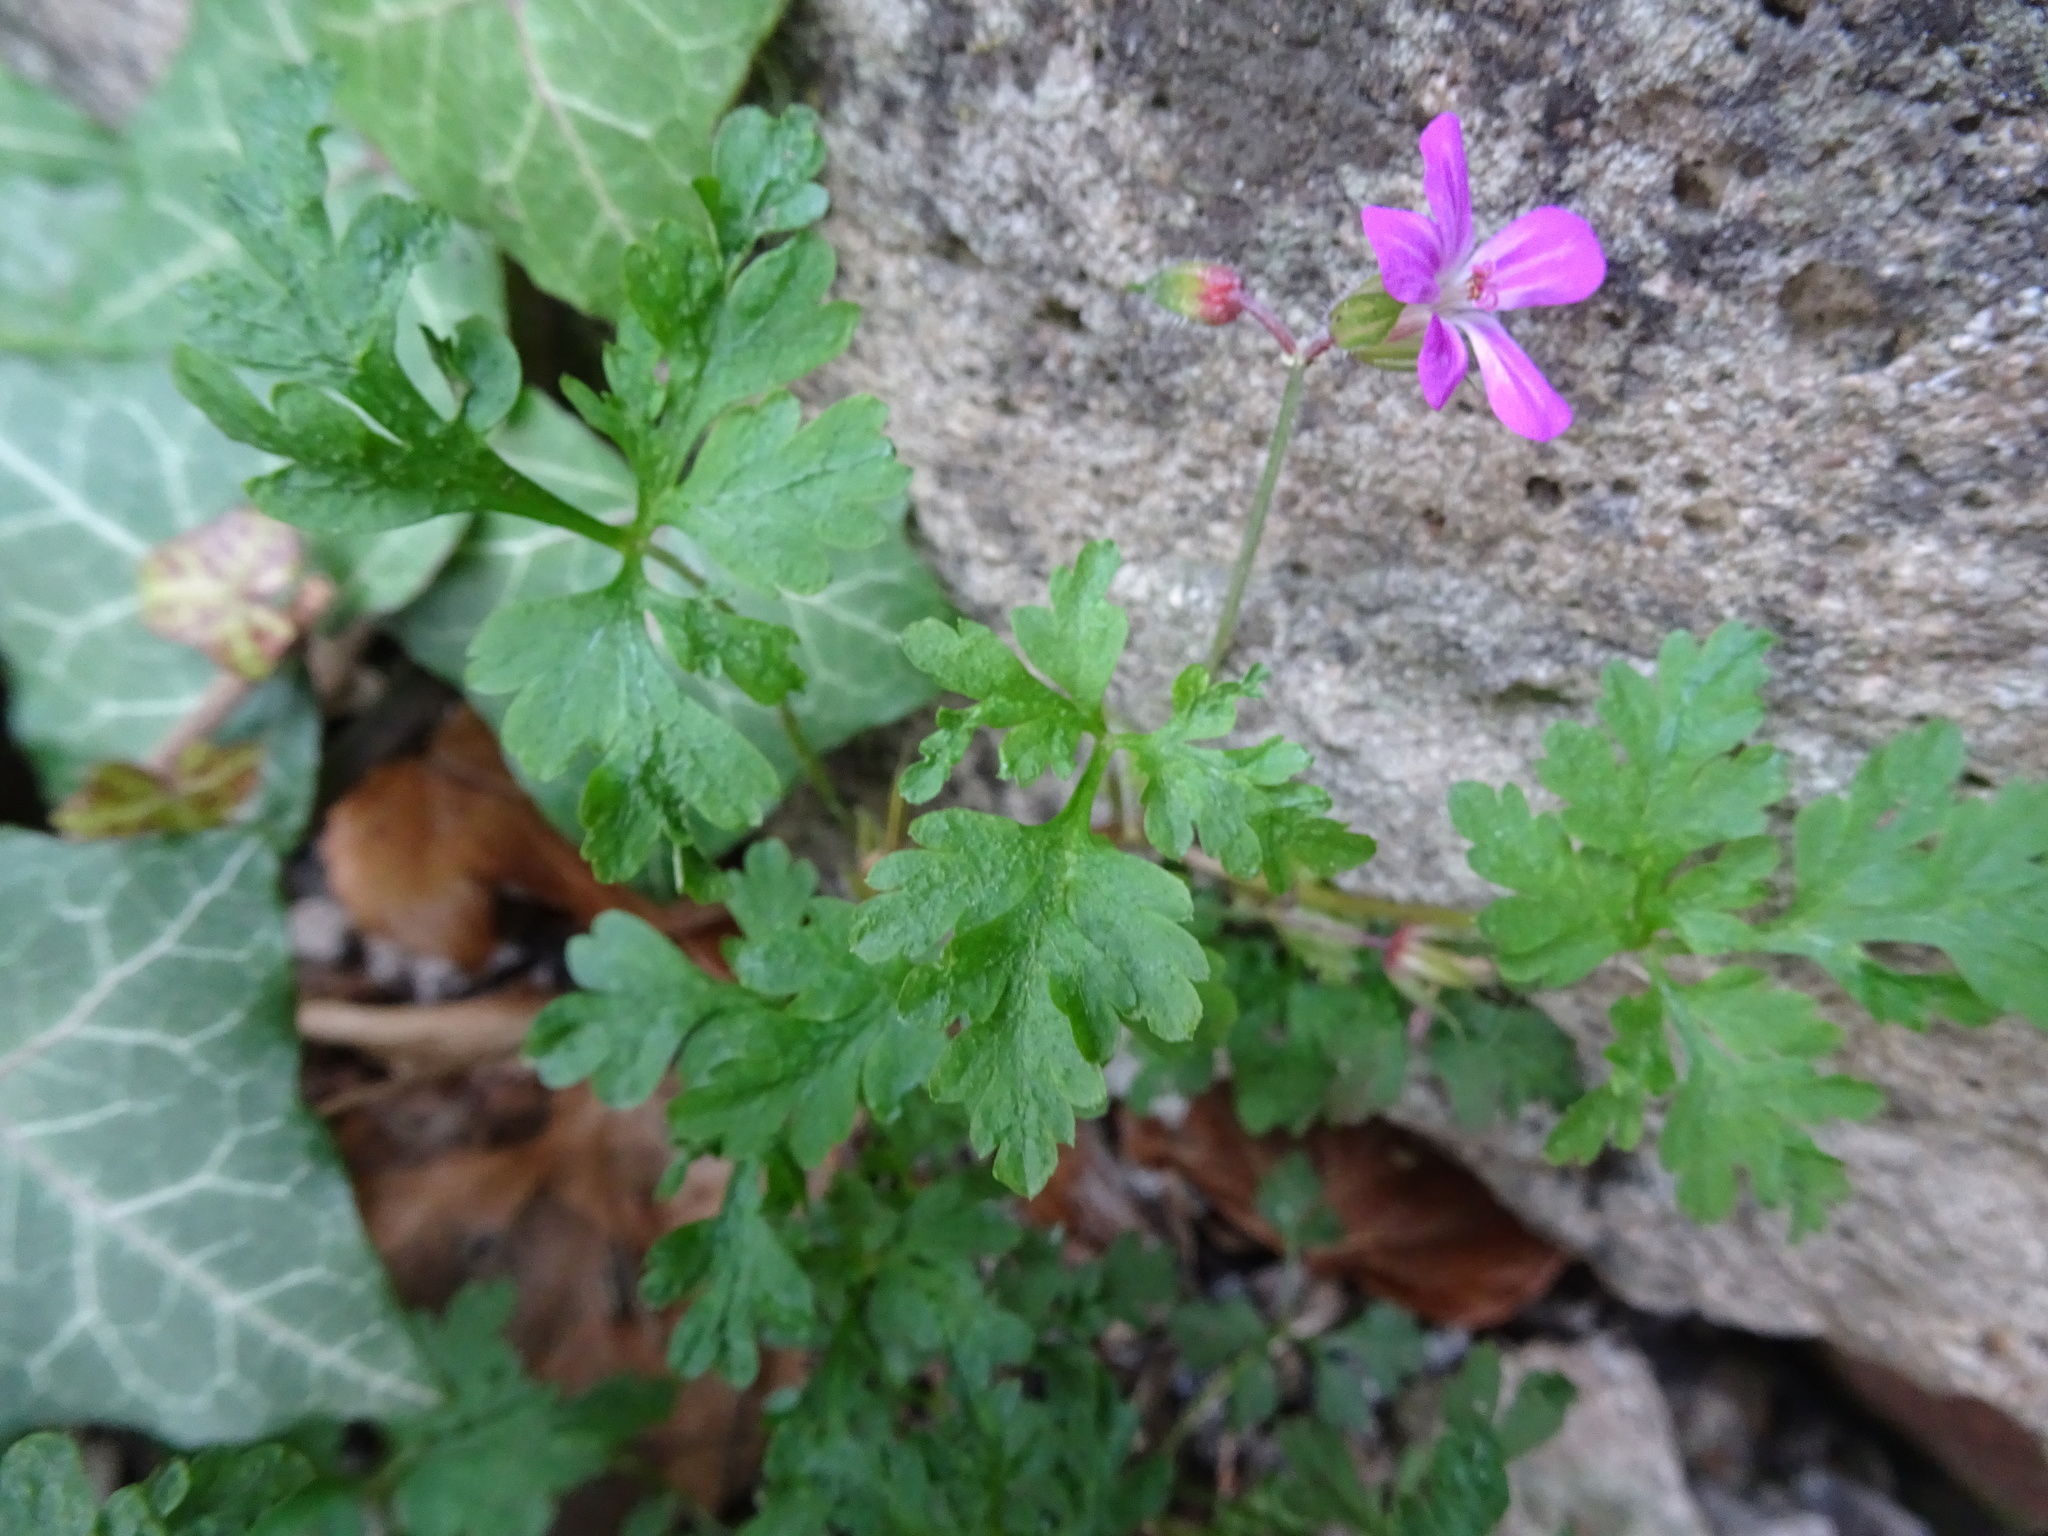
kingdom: Plantae
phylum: Tracheophyta
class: Magnoliopsida
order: Geraniales
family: Geraniaceae
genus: Geranium
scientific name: Geranium robertianum
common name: Herb-robert
